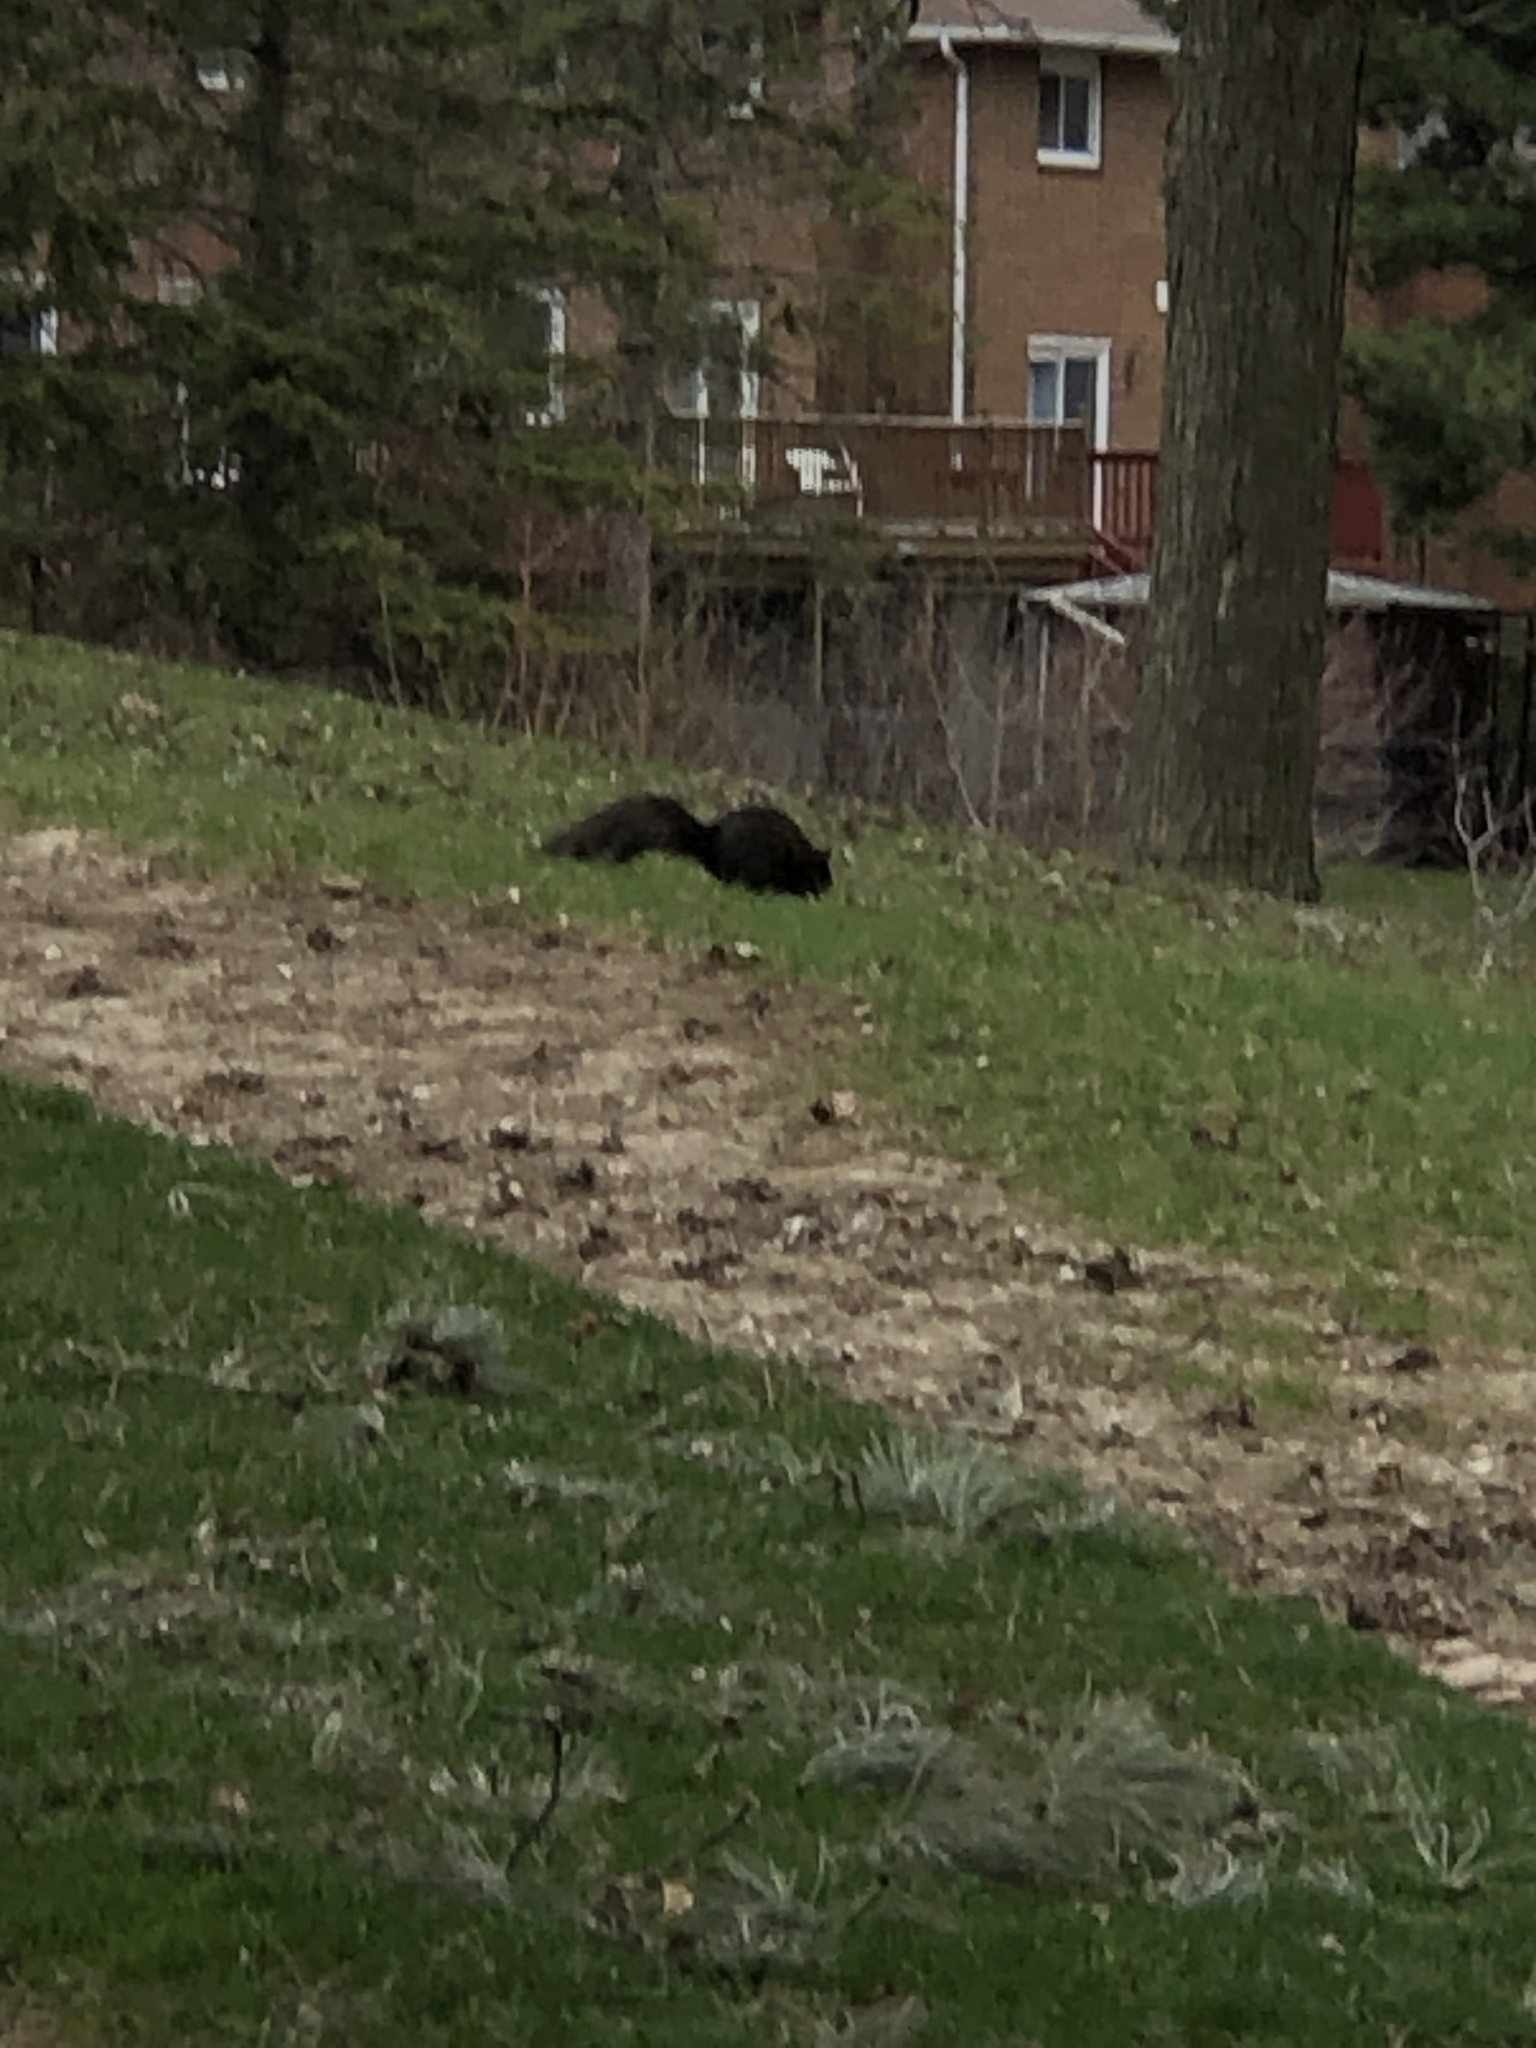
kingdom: Animalia
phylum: Chordata
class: Mammalia
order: Rodentia
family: Sciuridae
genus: Sciurus
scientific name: Sciurus carolinensis
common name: Eastern gray squirrel
